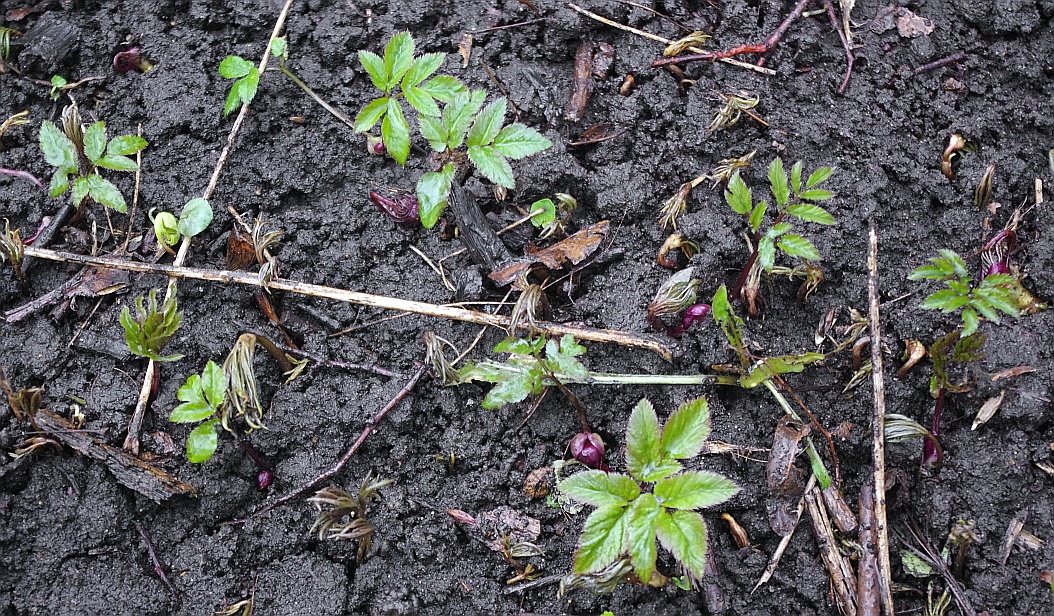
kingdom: Plantae
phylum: Tracheophyta
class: Magnoliopsida
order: Apiales
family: Apiaceae
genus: Aegopodium
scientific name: Aegopodium podagraria
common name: Ground-elder
